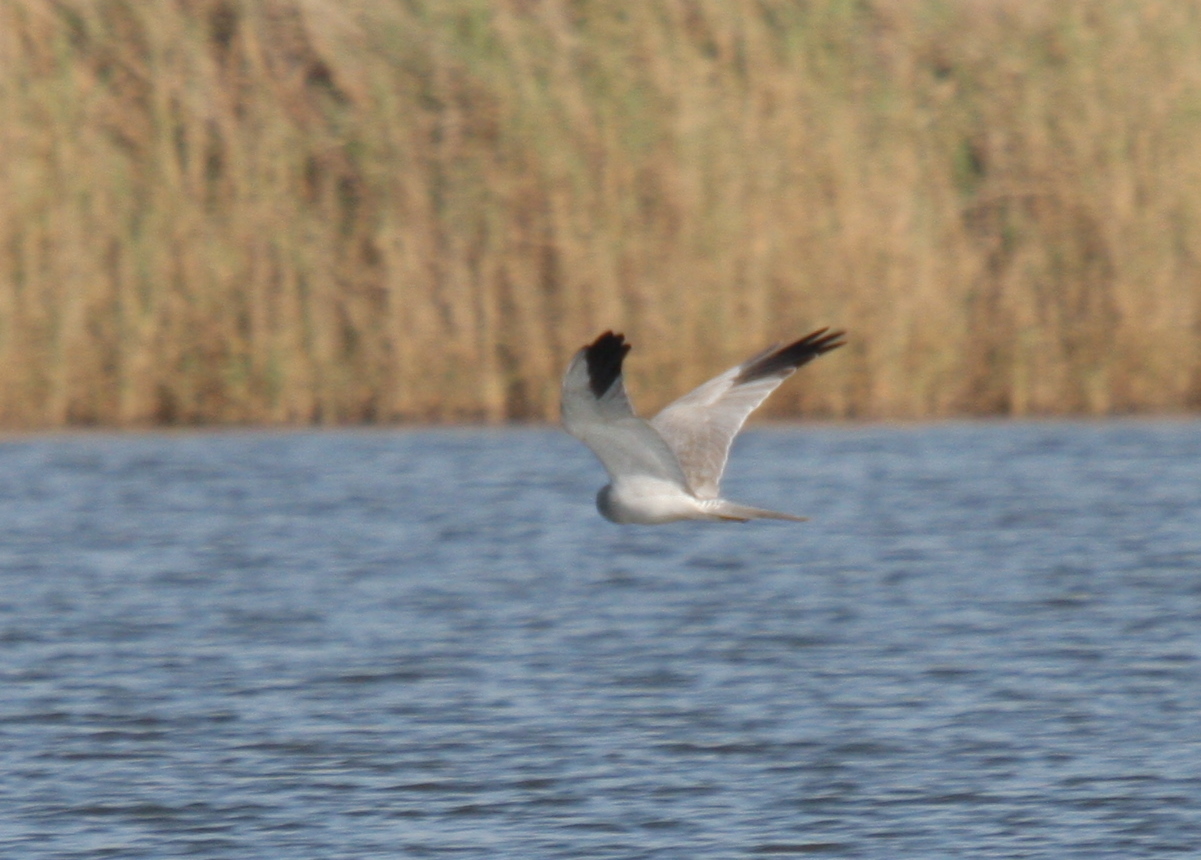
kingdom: Animalia
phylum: Chordata
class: Aves
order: Accipitriformes
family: Accipitridae
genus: Circus
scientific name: Circus macrourus
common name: Pallid harrier
